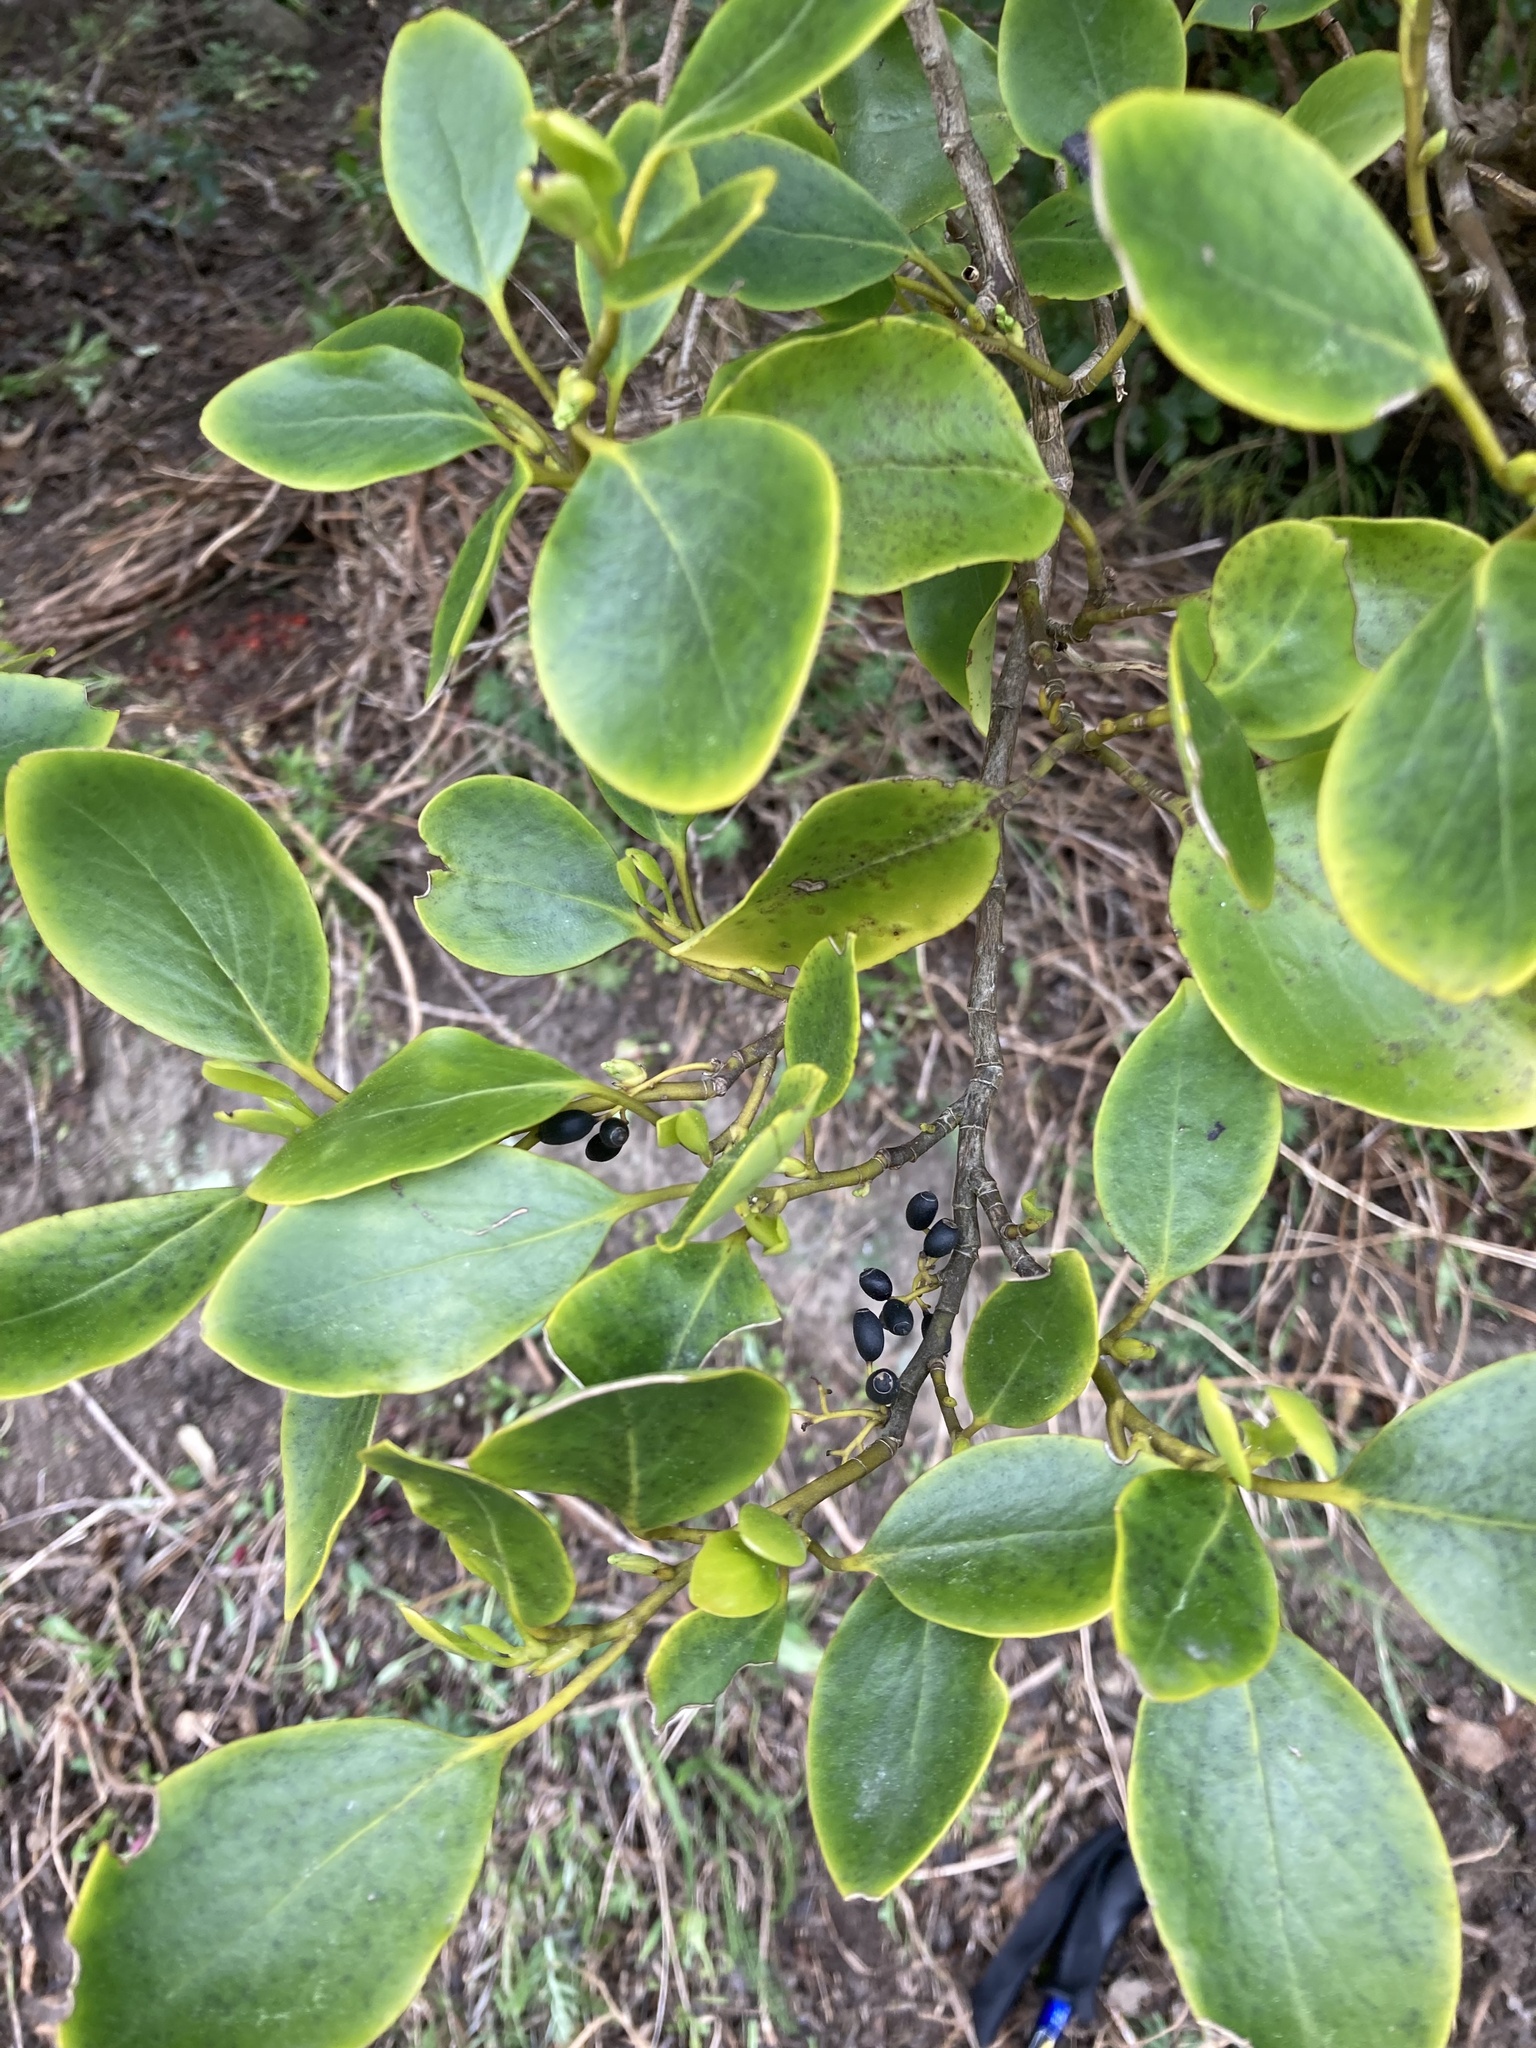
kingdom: Plantae
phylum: Tracheophyta
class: Magnoliopsida
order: Apiales
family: Griseliniaceae
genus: Griselinia
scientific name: Griselinia littoralis
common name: New zealand broadleaf
